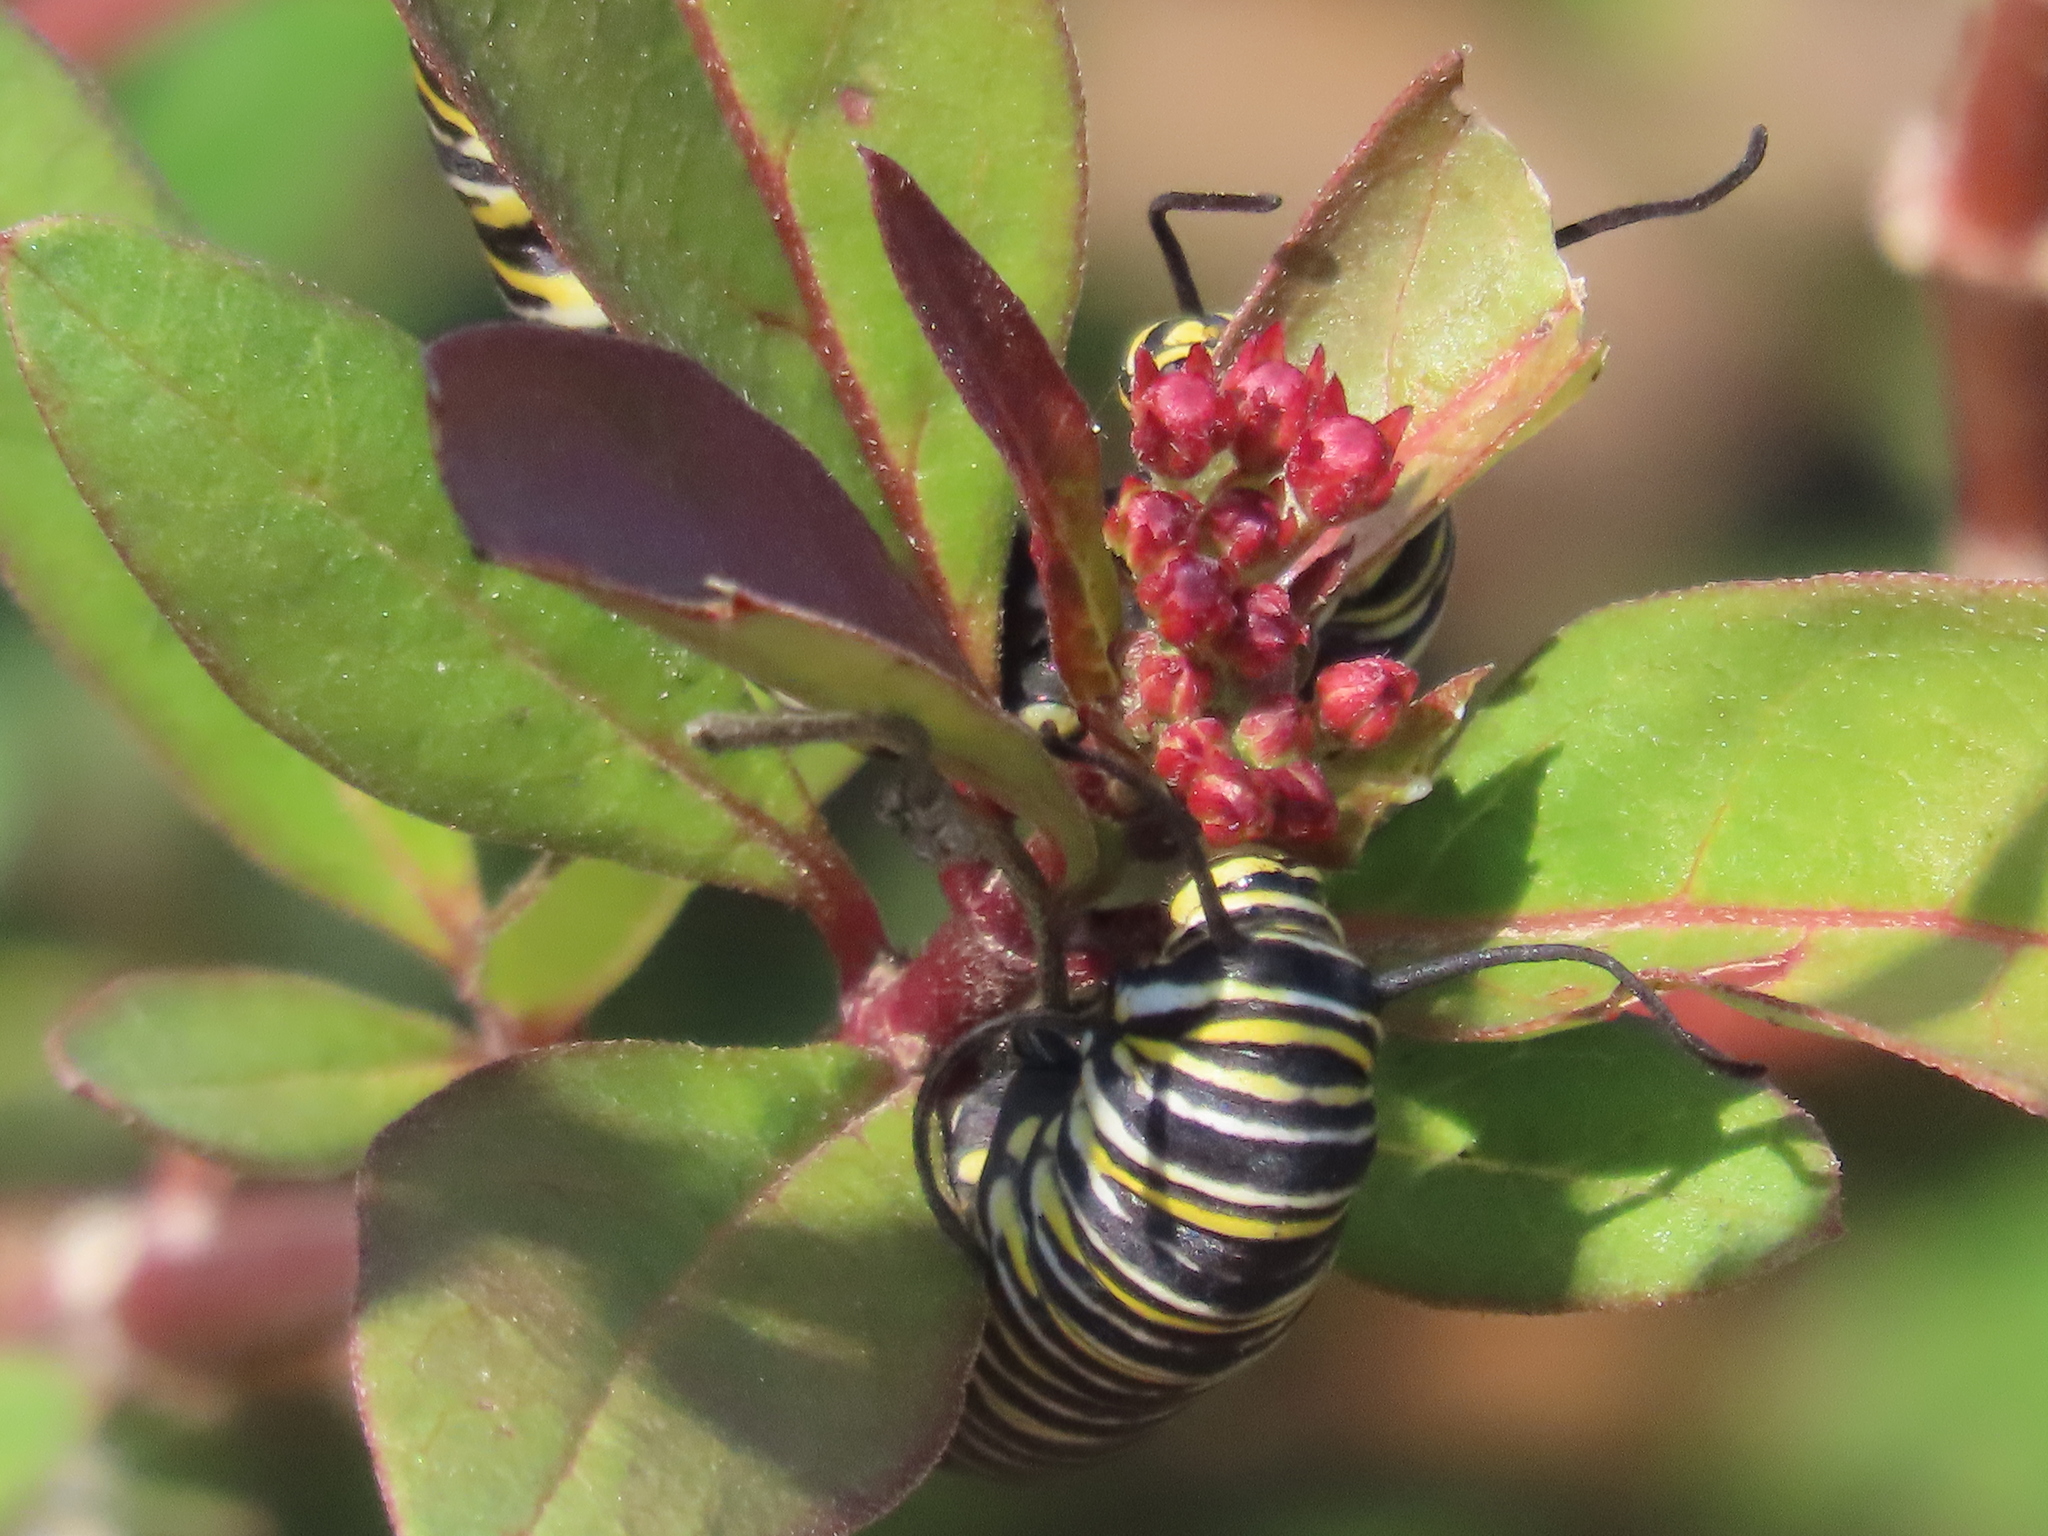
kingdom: Animalia
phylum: Arthropoda
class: Insecta
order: Lepidoptera
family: Nymphalidae
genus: Danaus
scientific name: Danaus plexippus
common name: Monarch
